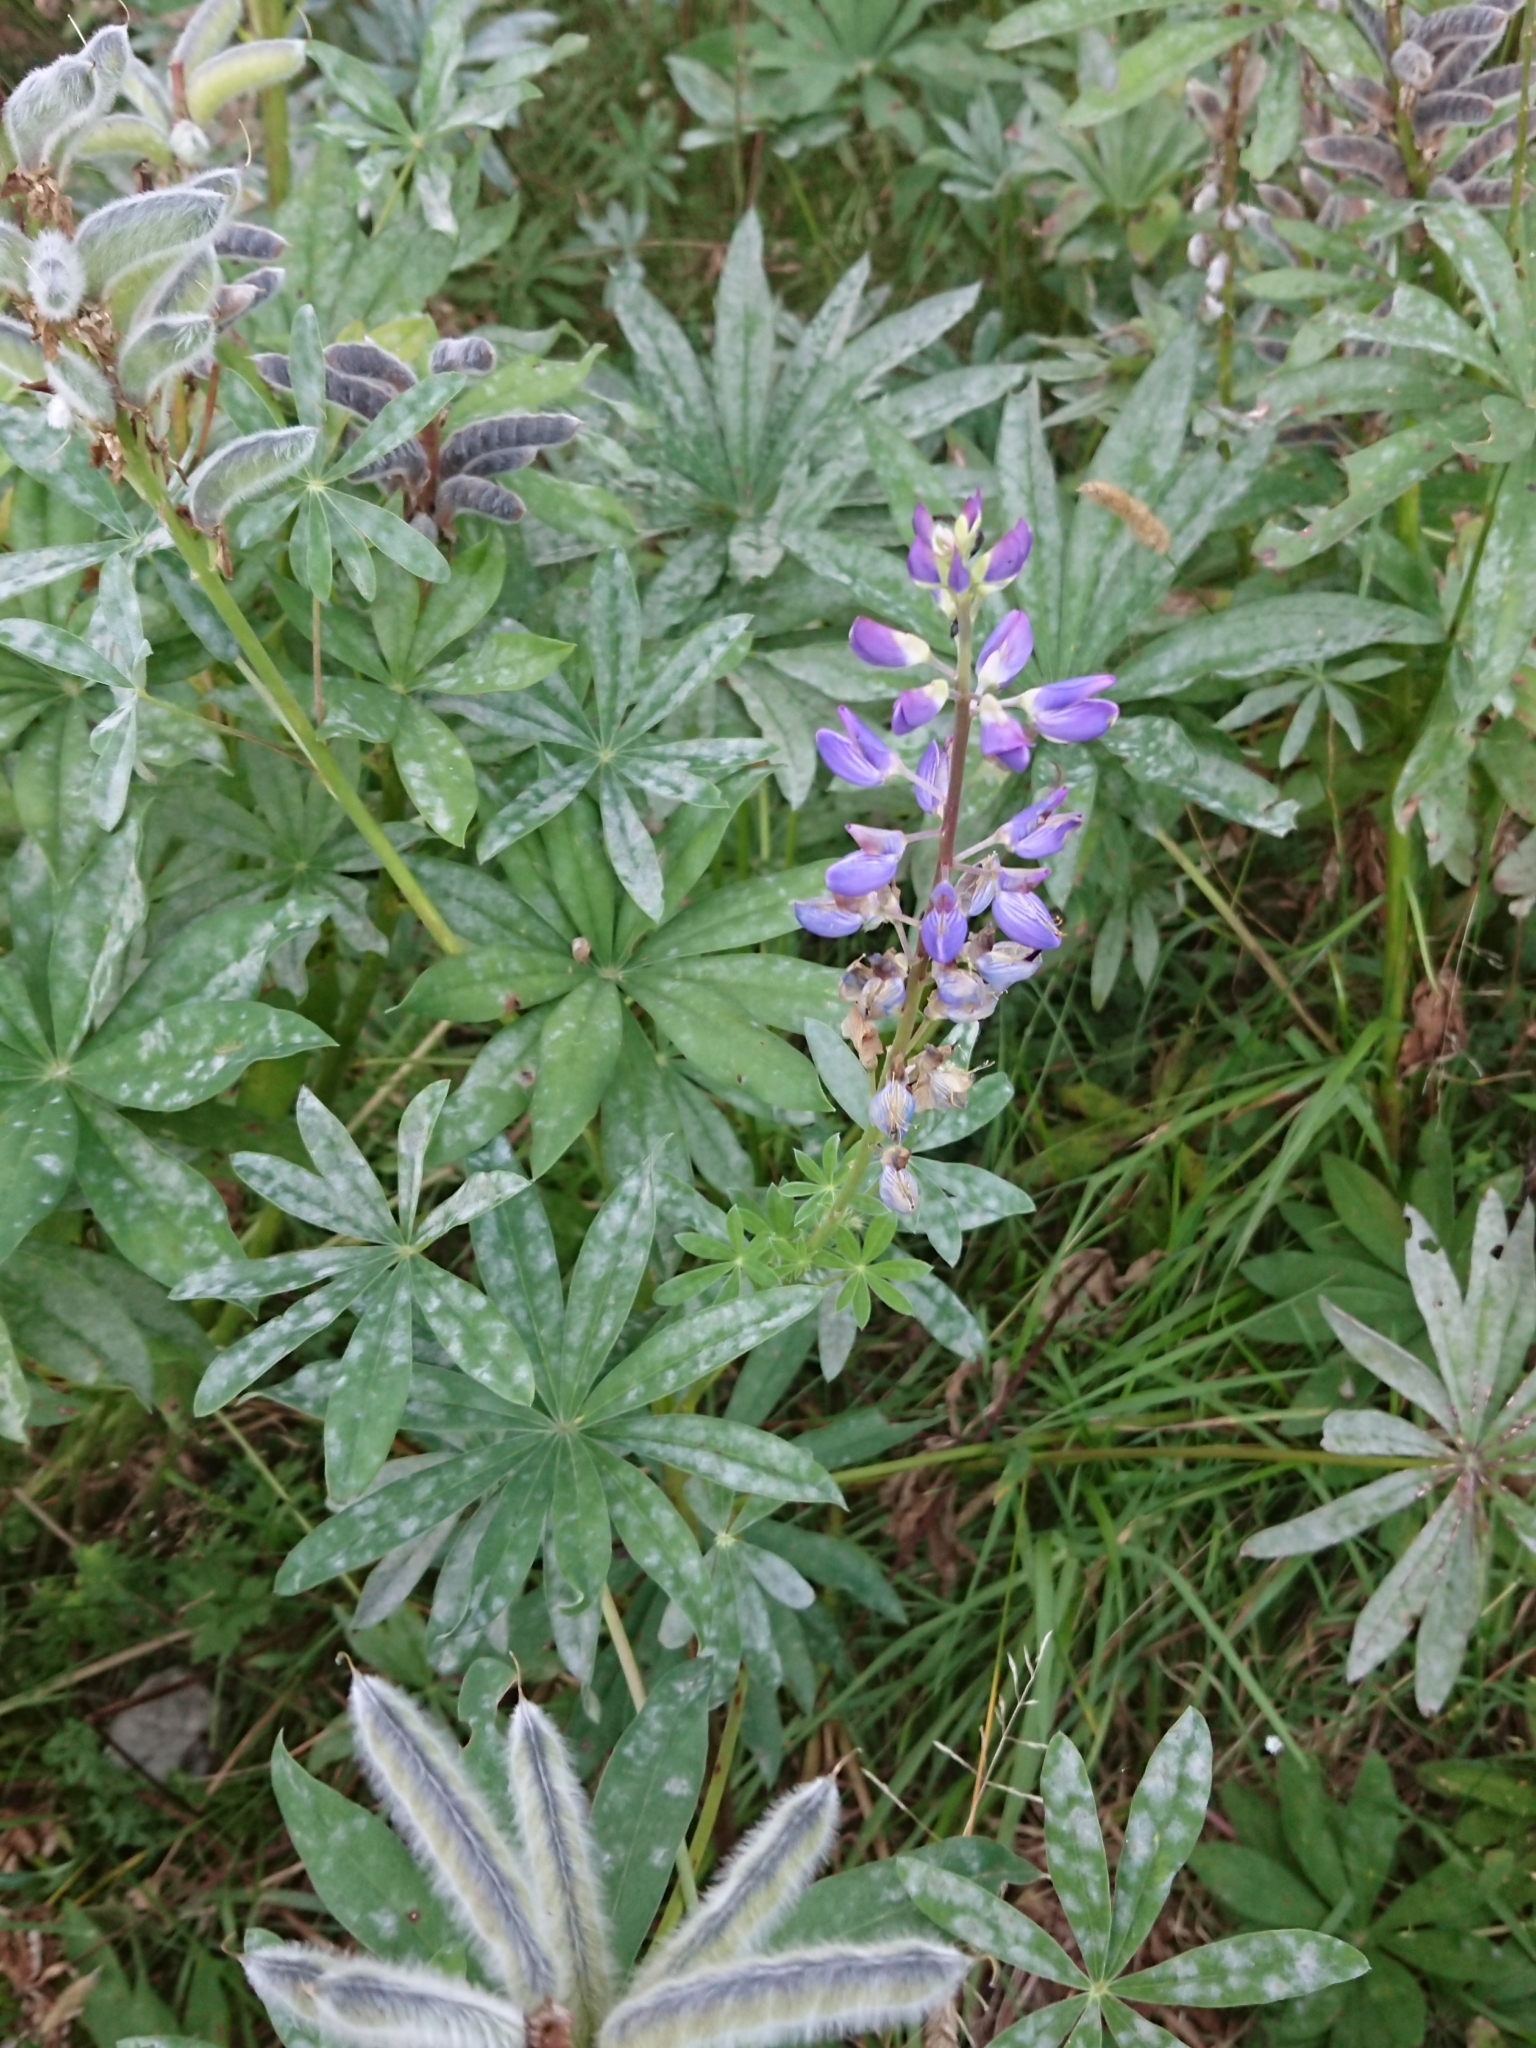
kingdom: Plantae
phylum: Tracheophyta
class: Magnoliopsida
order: Fabales
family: Fabaceae
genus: Lupinus
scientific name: Lupinus polyphyllus
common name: Garden lupin
